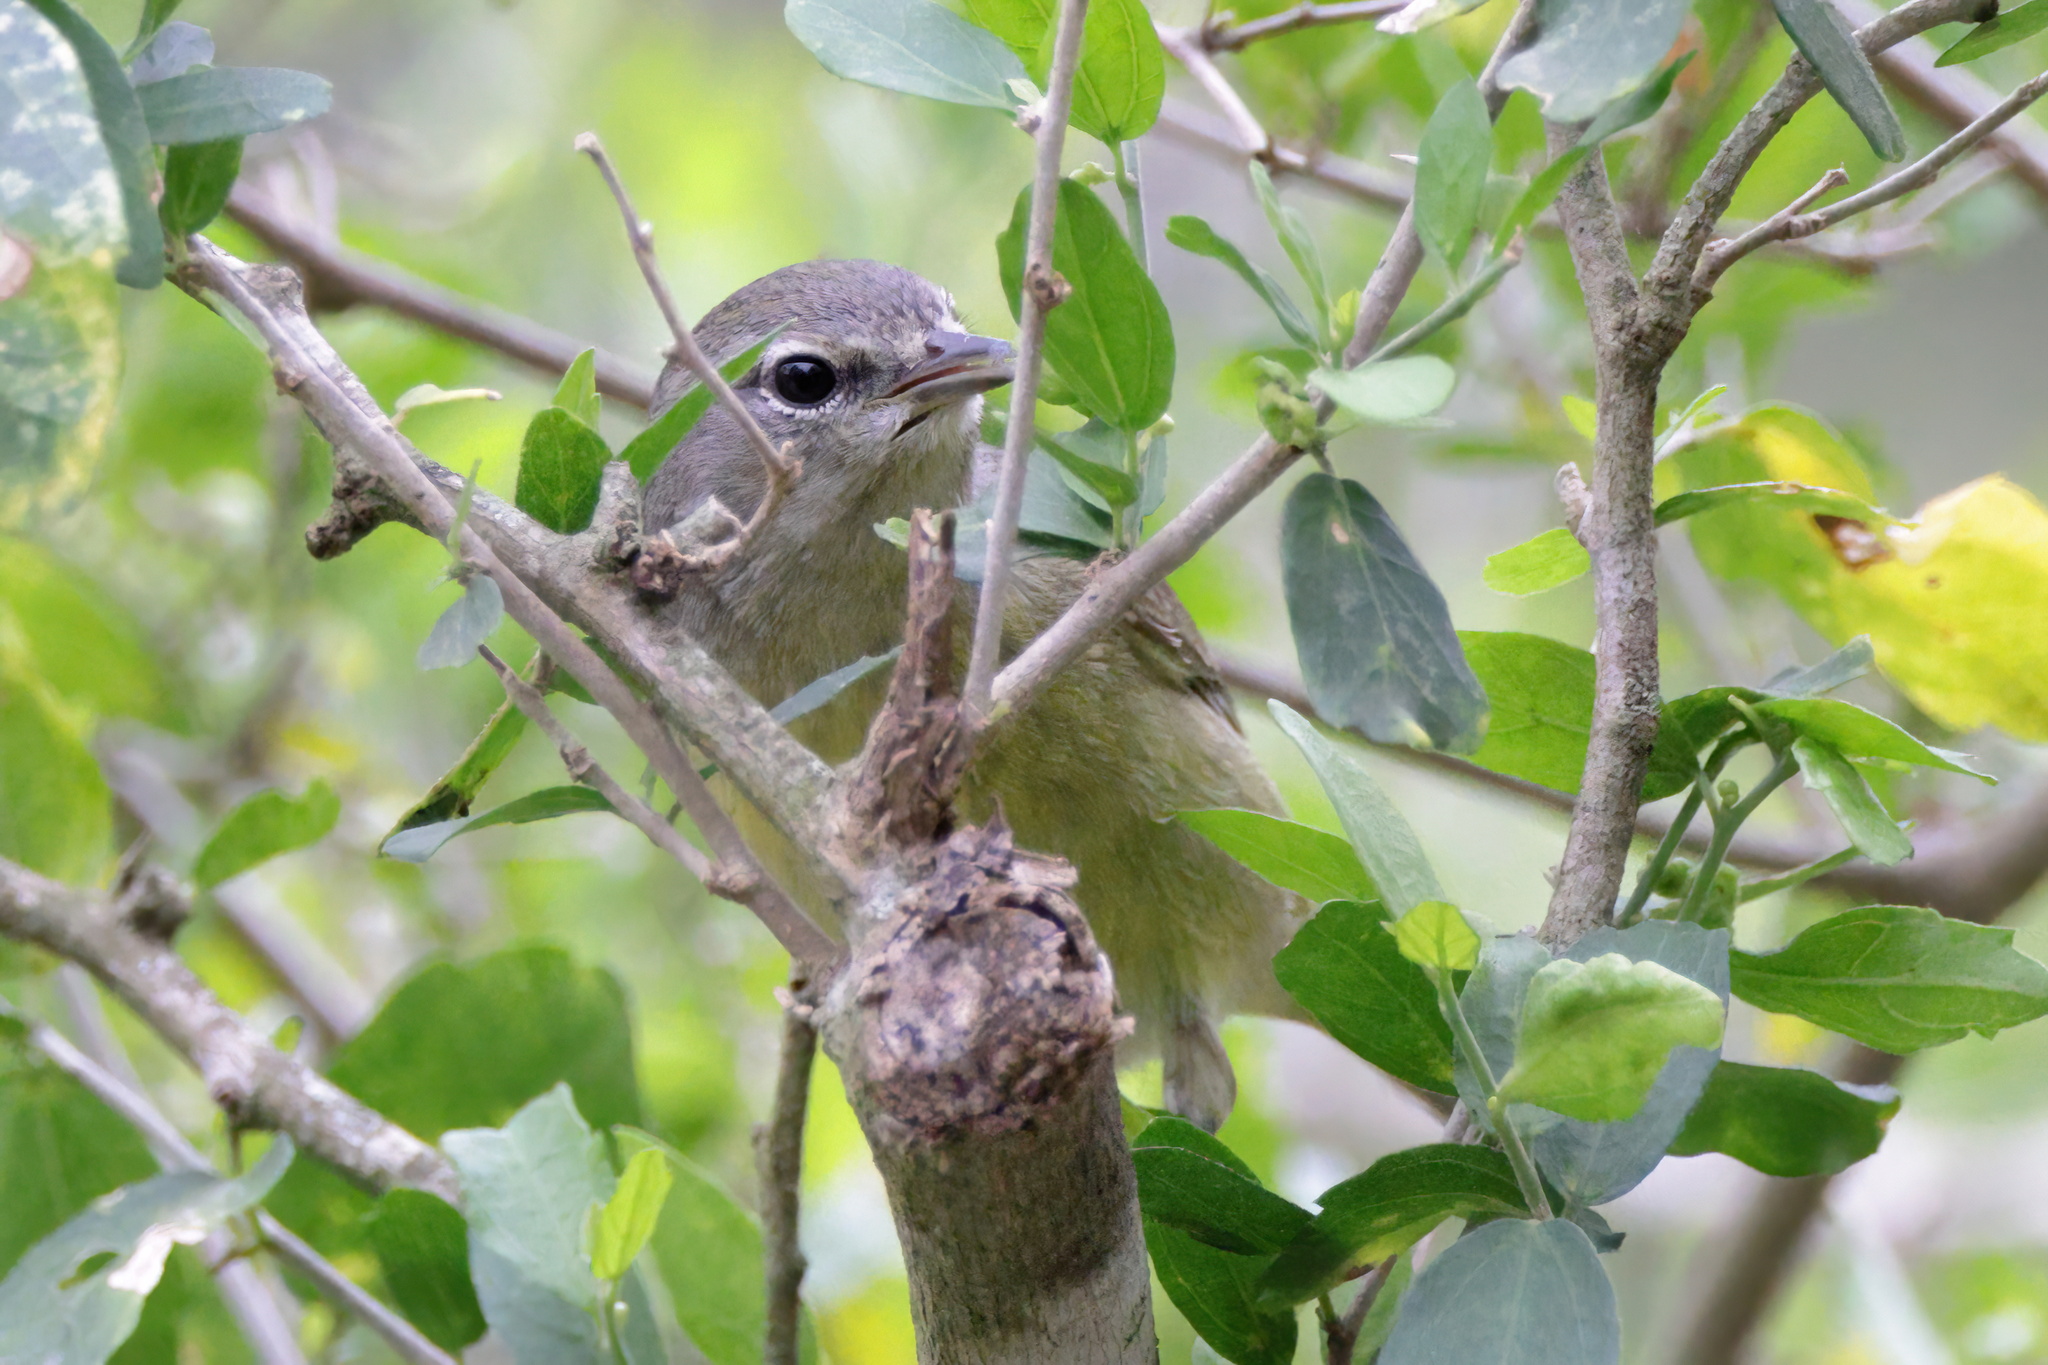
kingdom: Animalia
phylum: Chordata
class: Aves
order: Passeriformes
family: Parulidae
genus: Leiothlypis
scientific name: Leiothlypis celata
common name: Orange-crowned warbler
